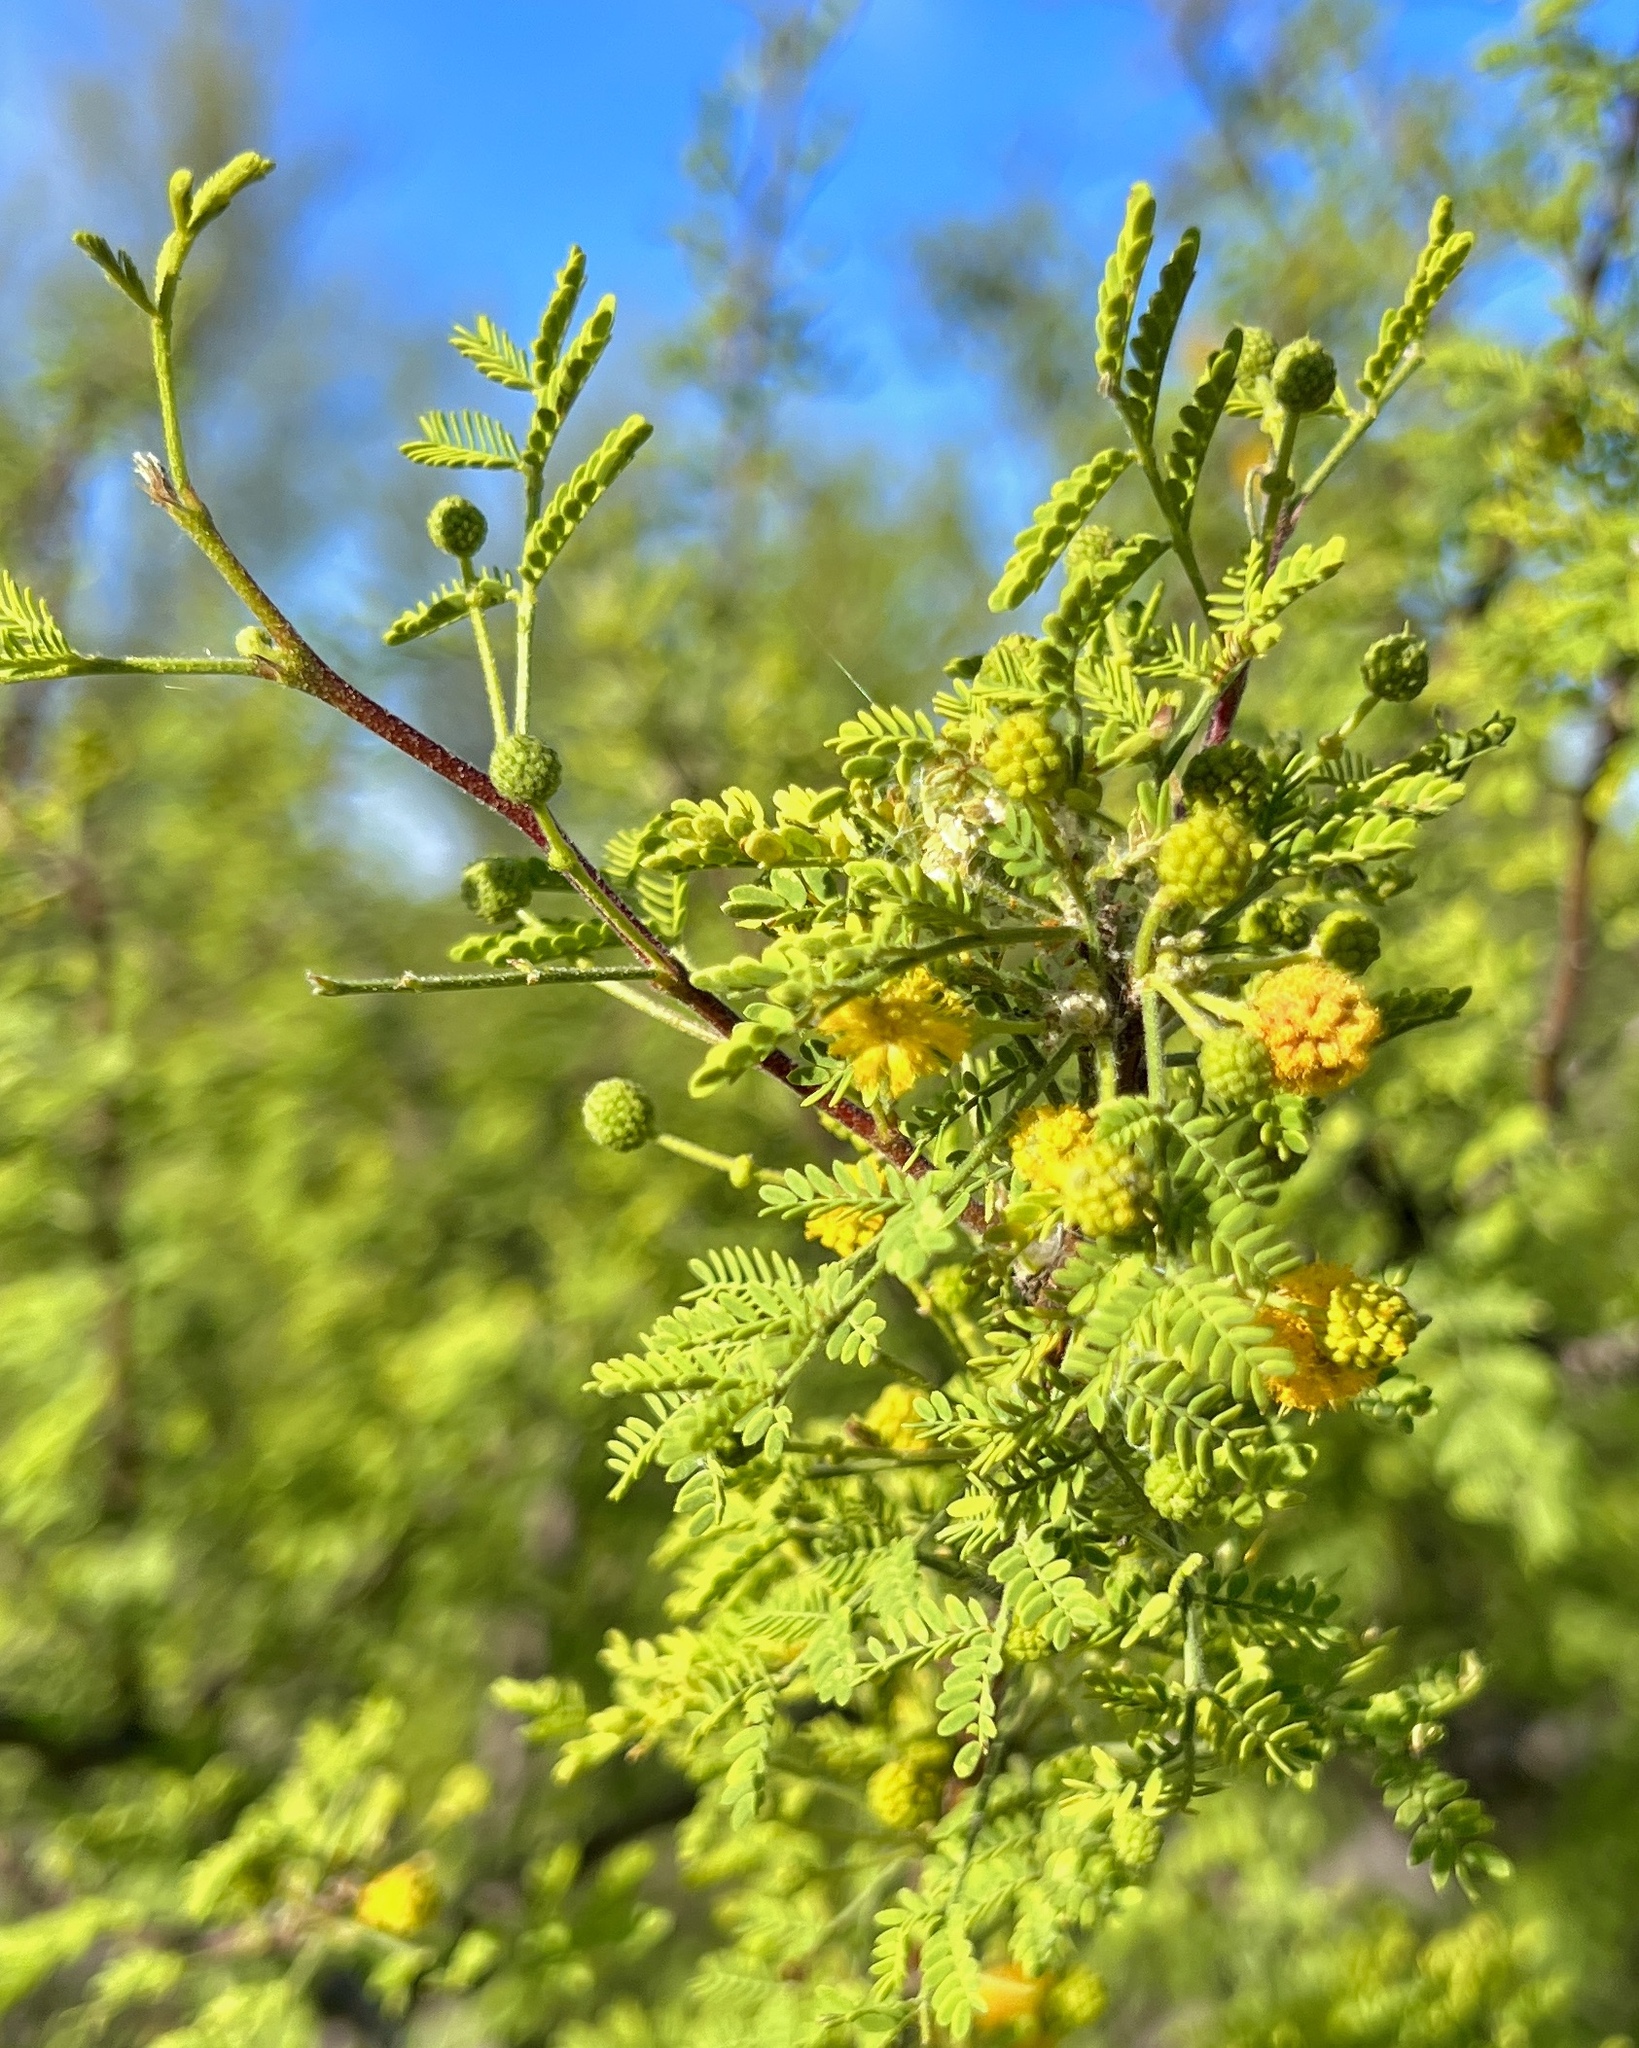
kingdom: Plantae
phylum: Tracheophyta
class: Magnoliopsida
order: Fabales
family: Fabaceae
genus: Vachellia
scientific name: Vachellia constricta
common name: Mescat acacia
